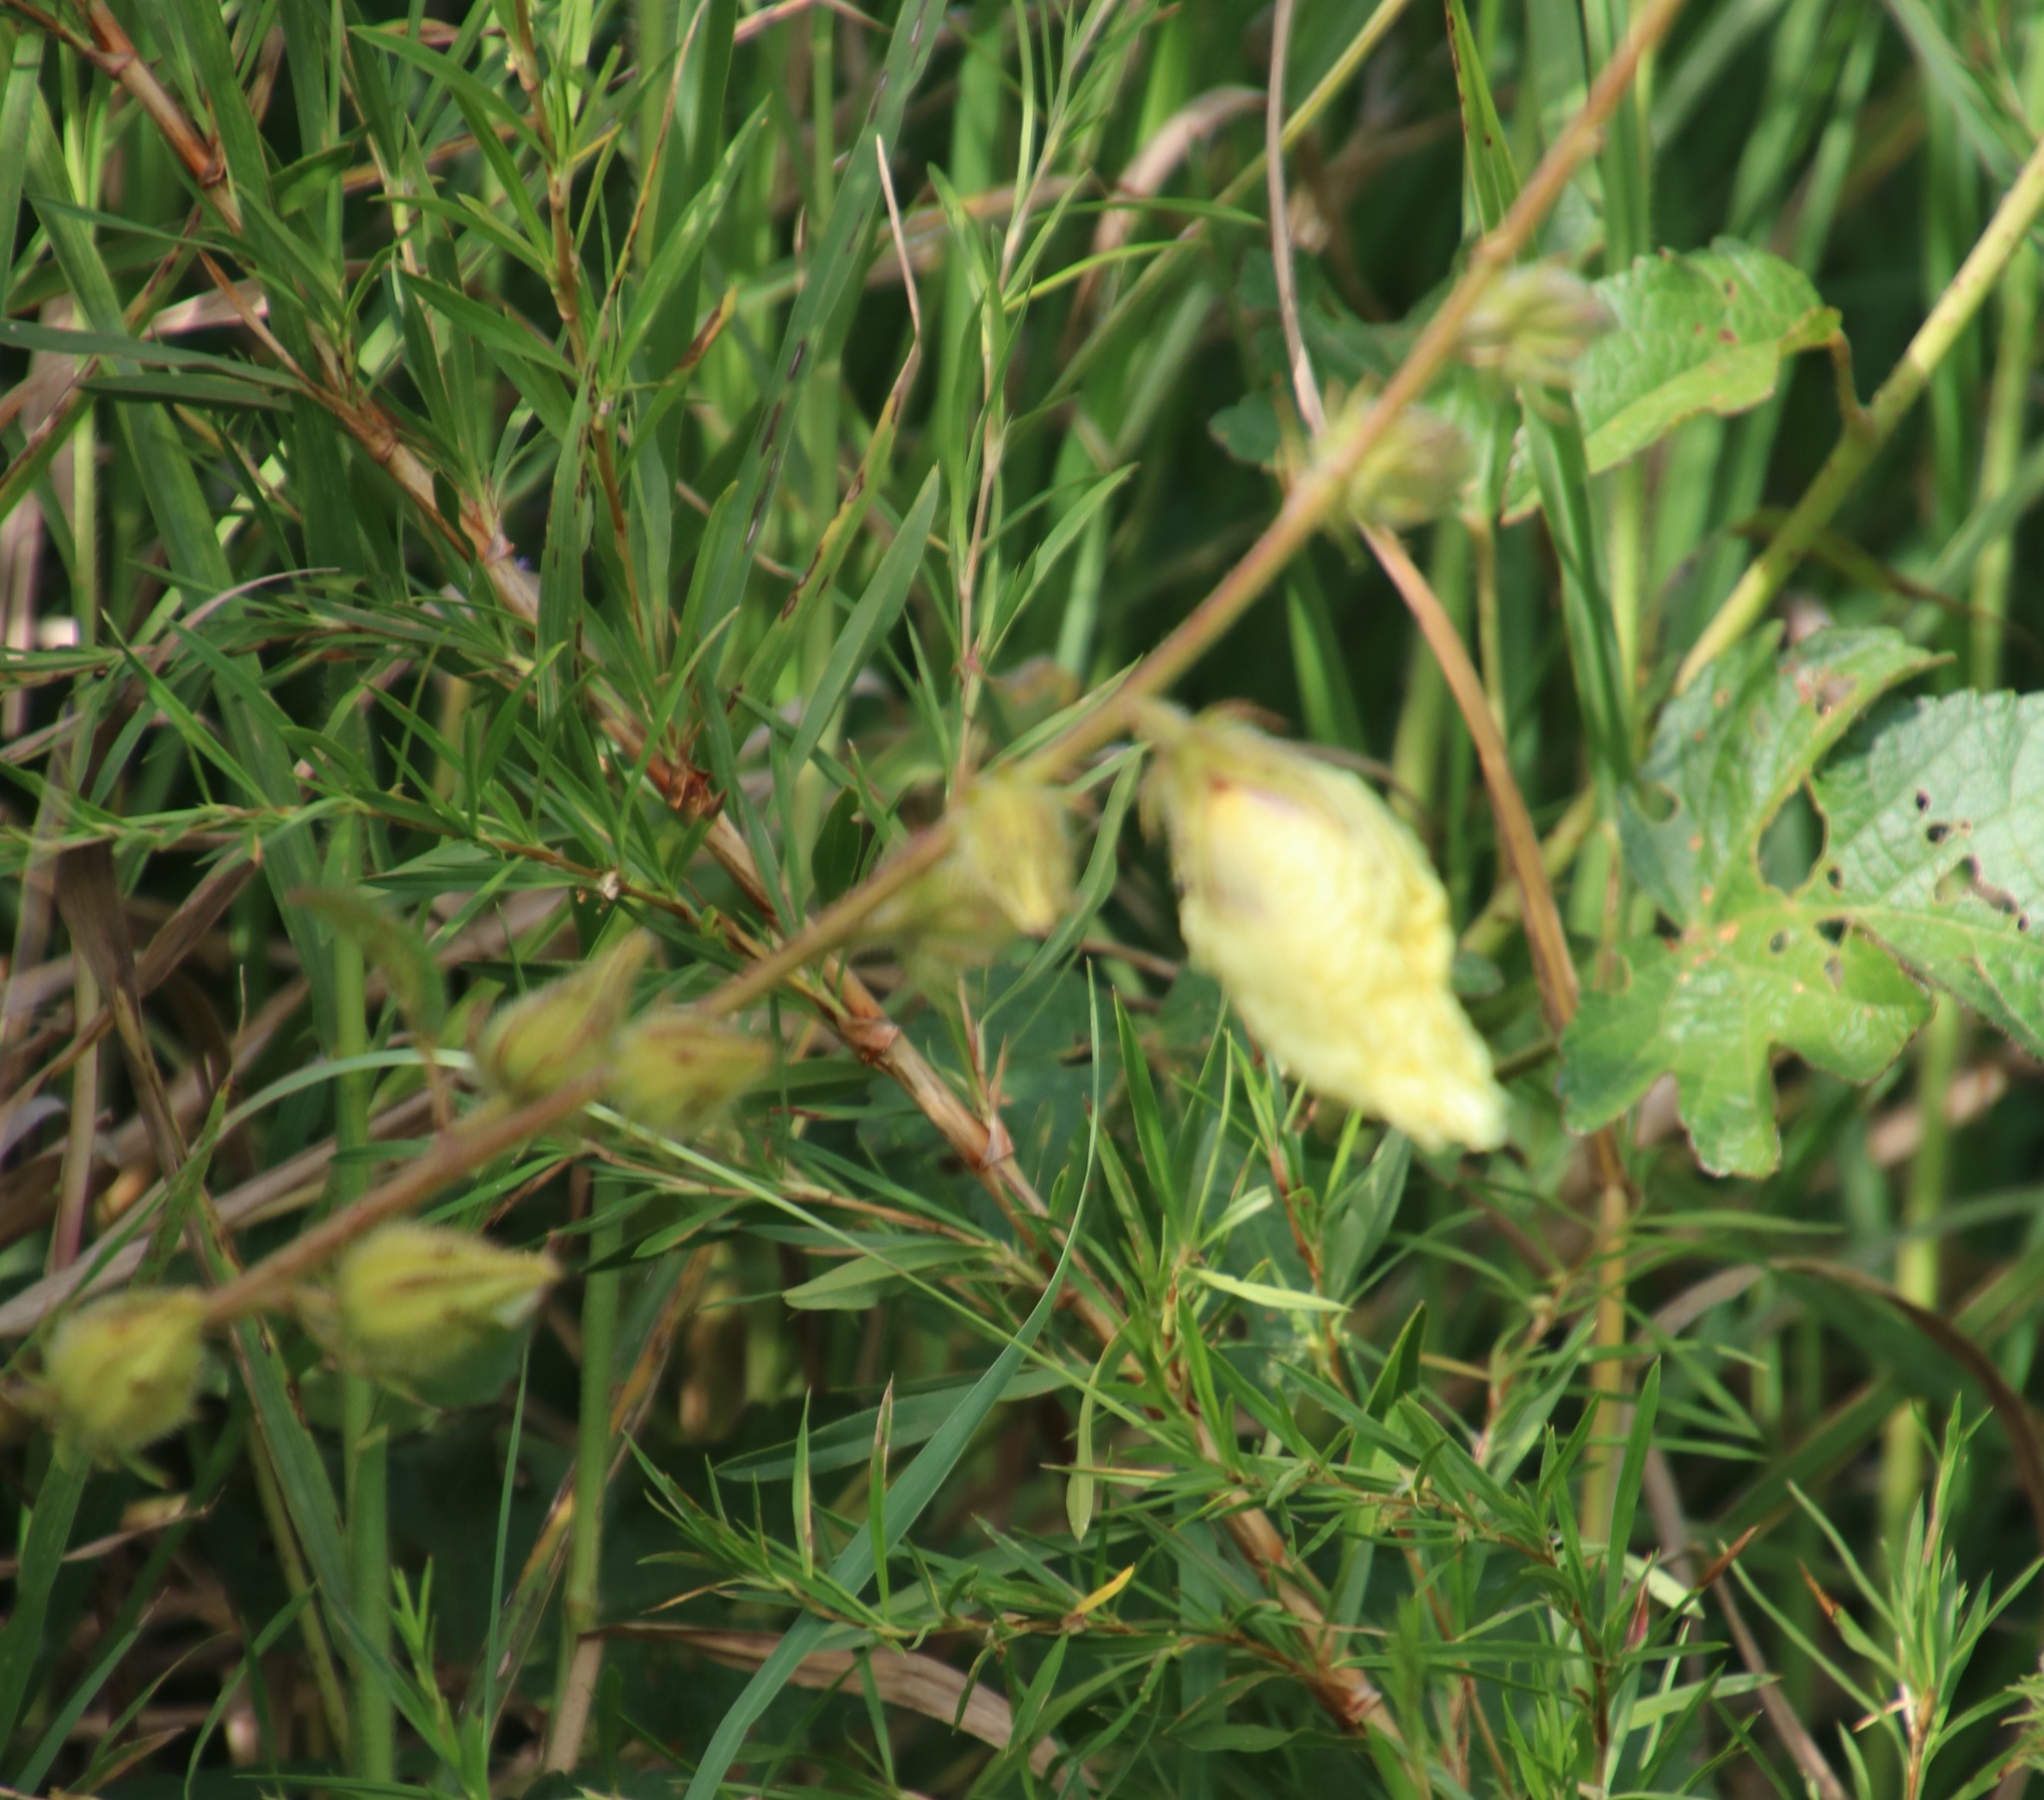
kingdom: Plantae
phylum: Tracheophyta
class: Magnoliopsida
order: Malvales
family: Malvaceae
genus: Hibiscus
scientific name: Hibiscus diversifolius
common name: Cape hibiscus
